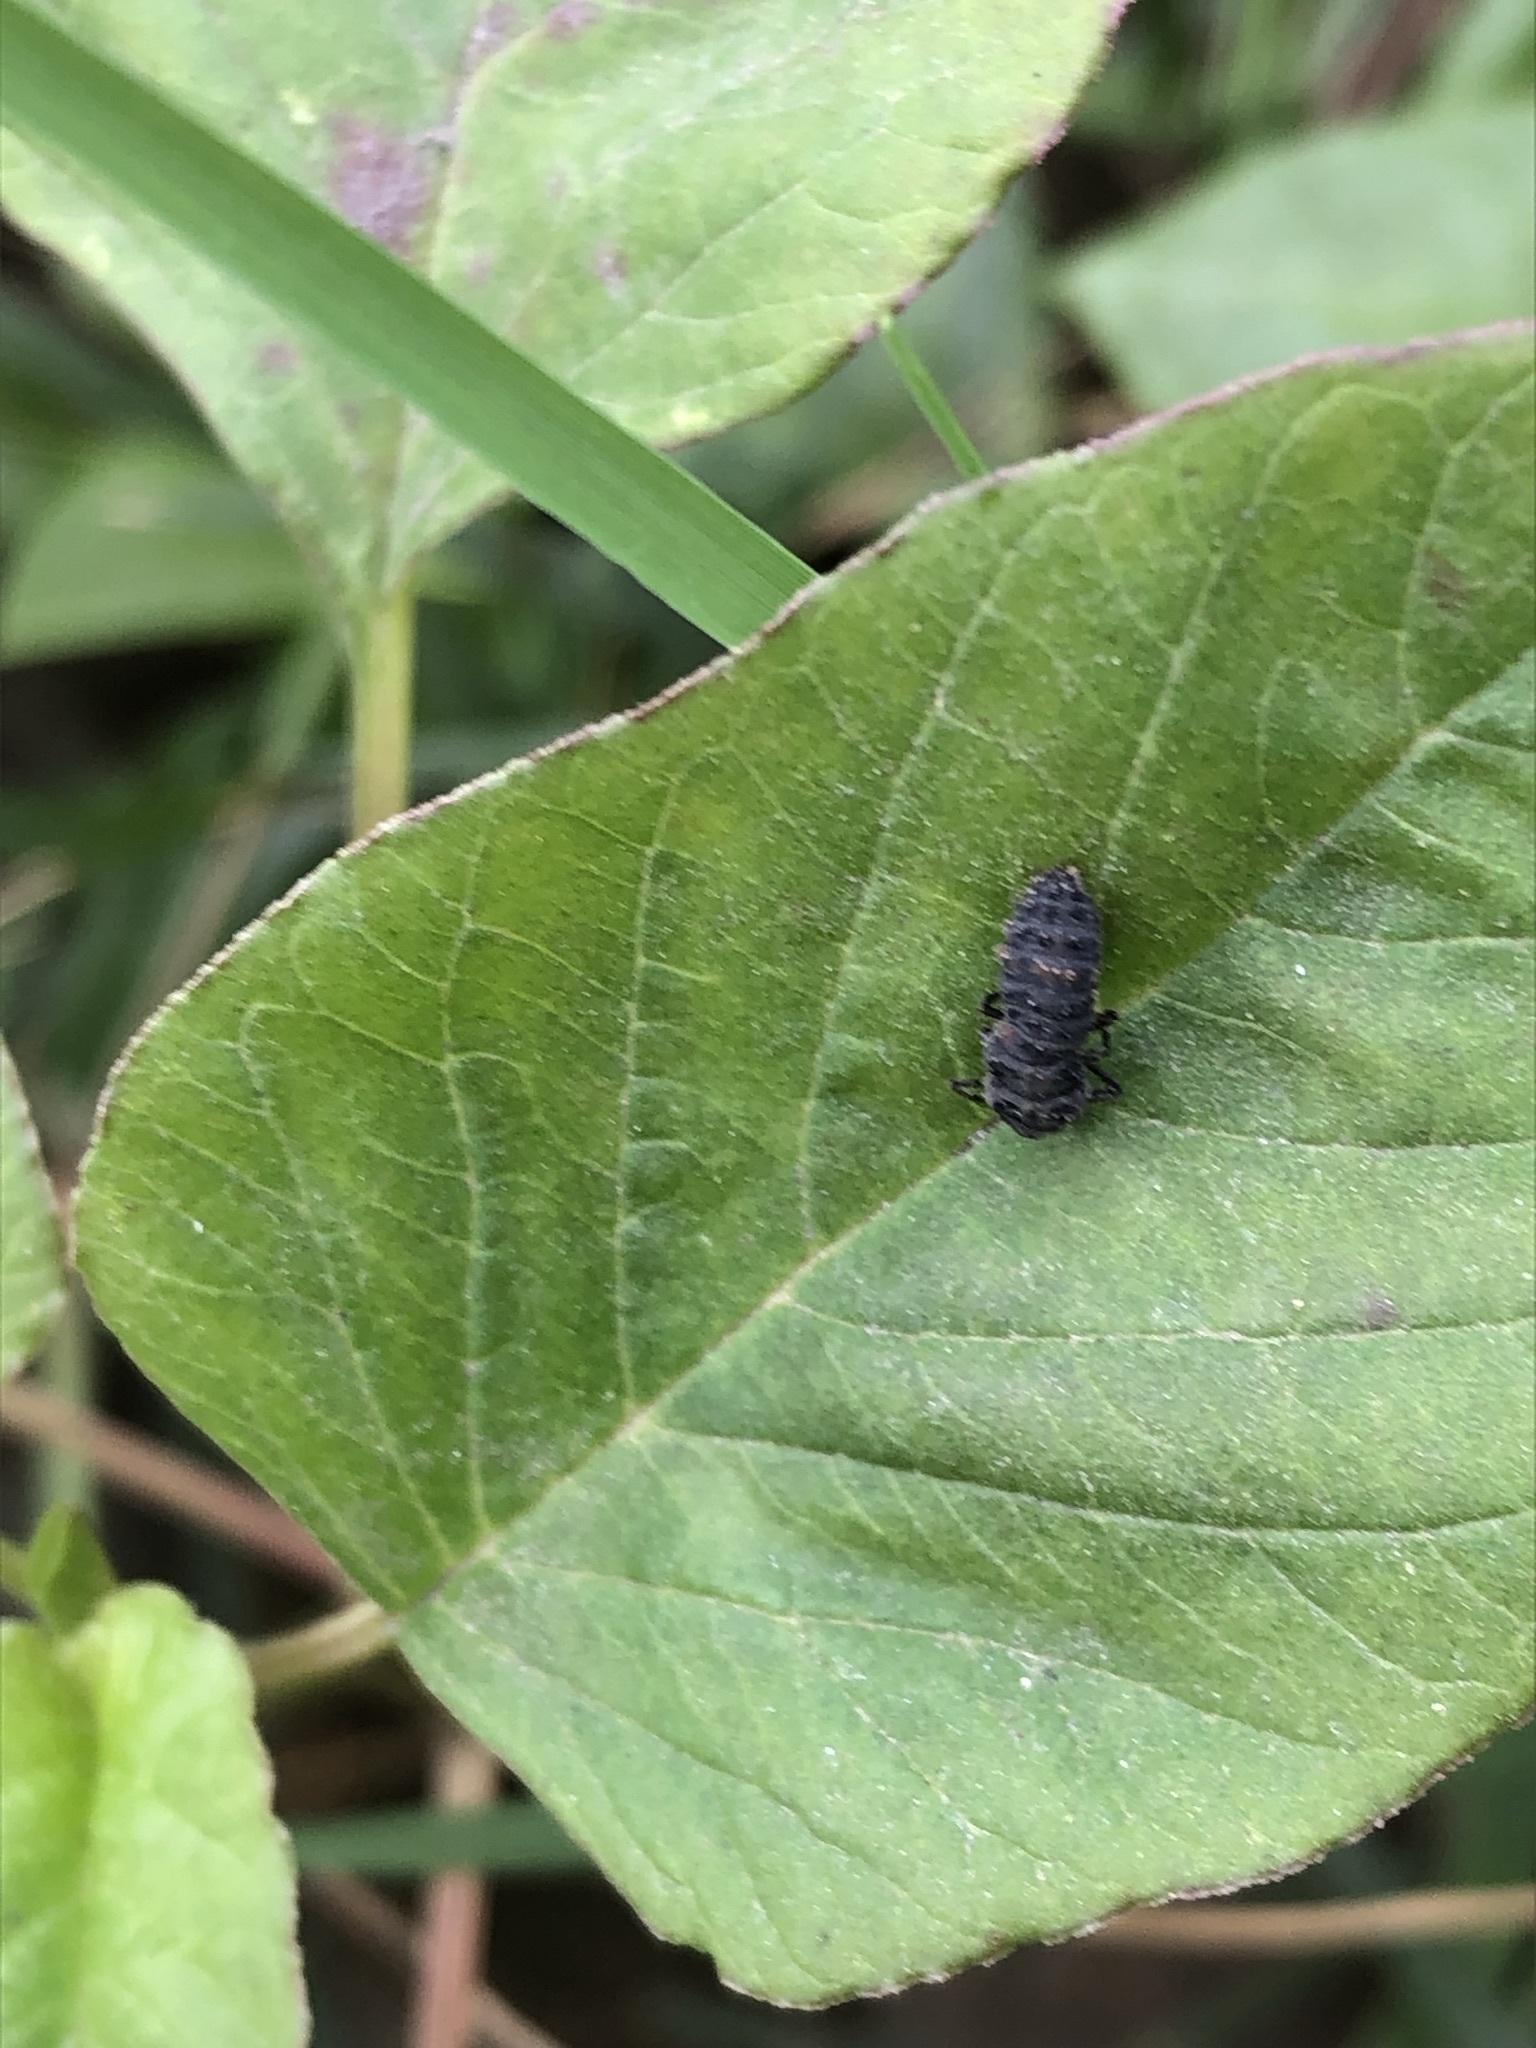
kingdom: Animalia
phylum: Arthropoda
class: Insecta
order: Coleoptera
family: Coccinellidae
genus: Harmonia
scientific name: Harmonia axyridis
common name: Harlequin ladybird
